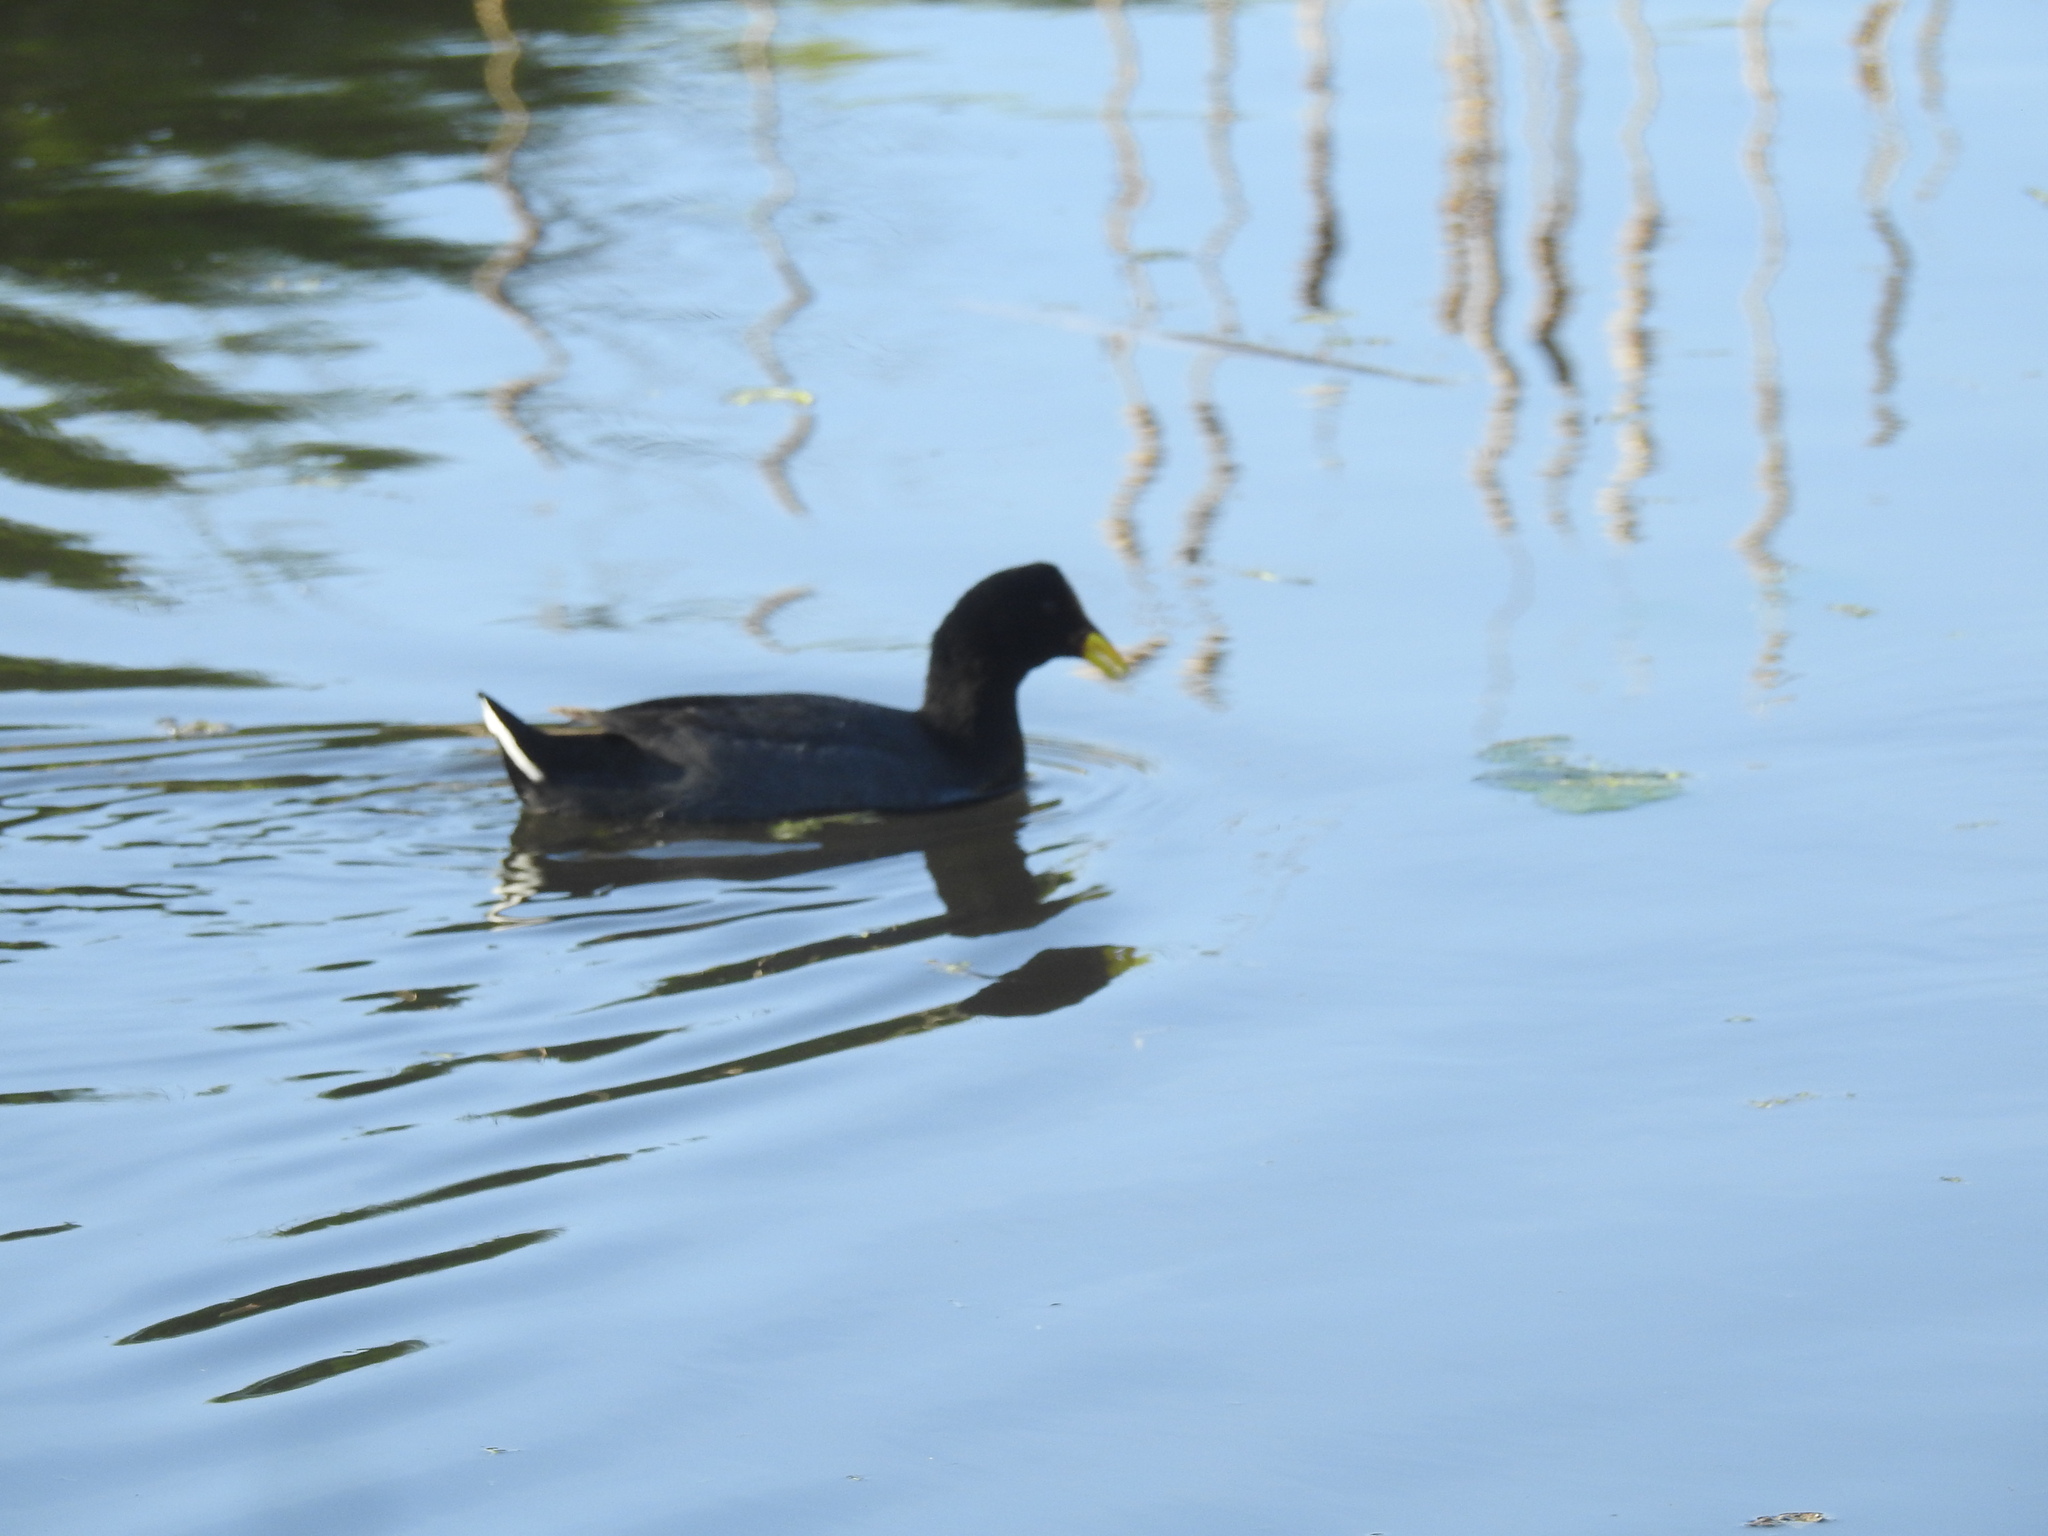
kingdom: Animalia
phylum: Chordata
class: Aves
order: Gruiformes
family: Rallidae
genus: Fulica
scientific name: Fulica rufifrons
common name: Red-fronted coot
